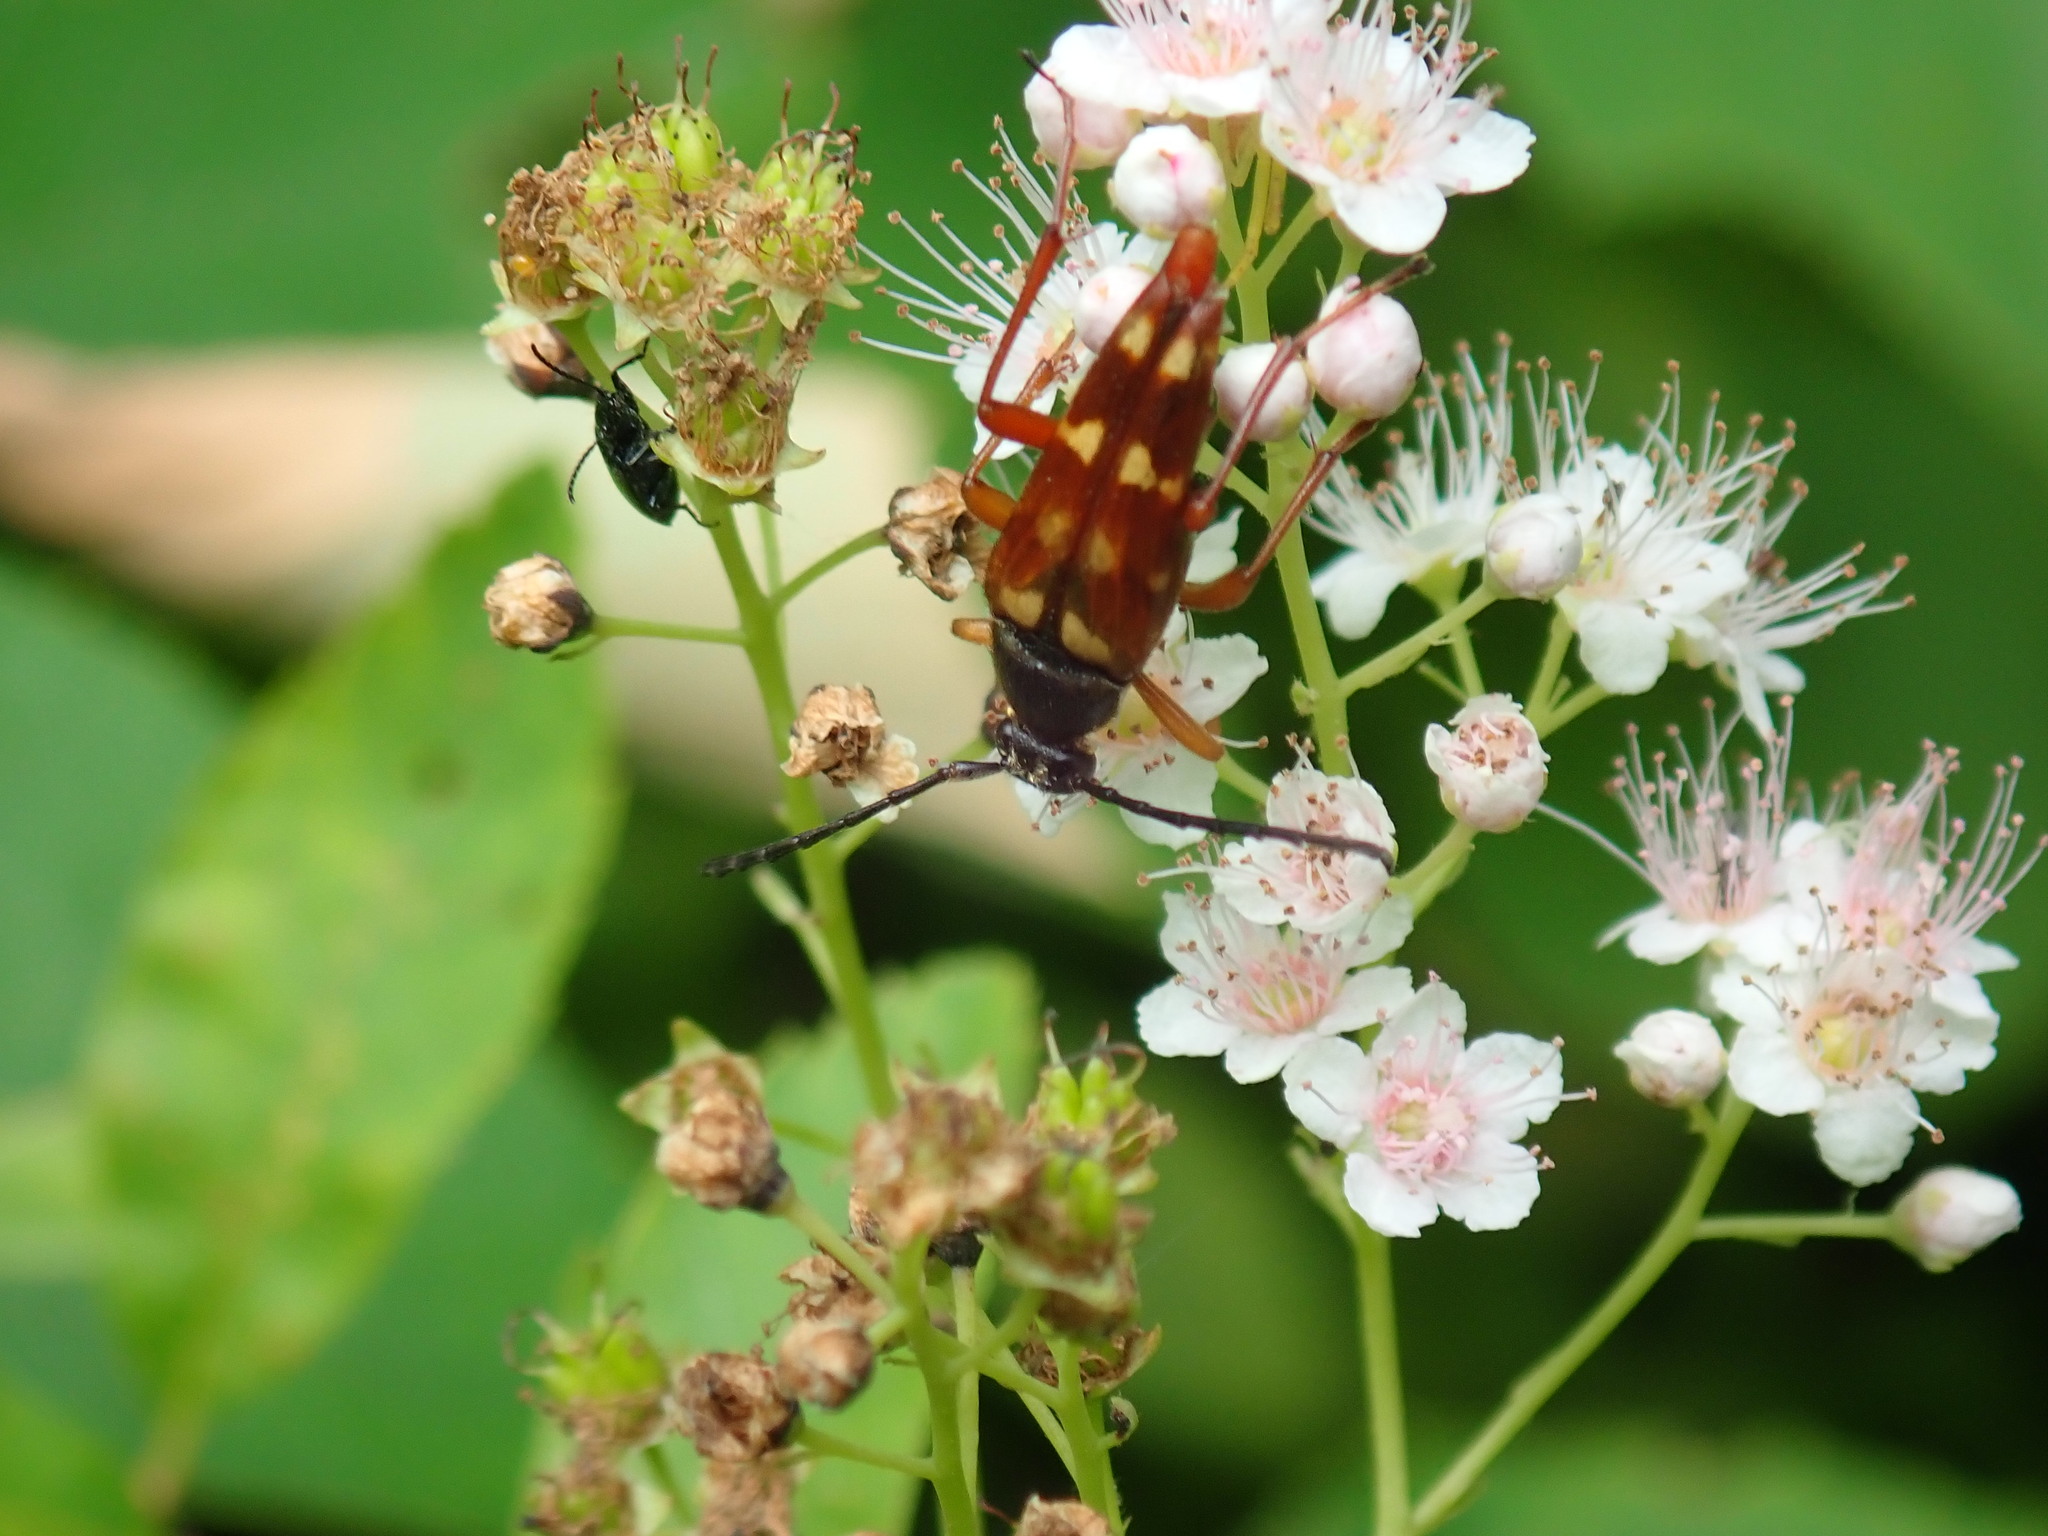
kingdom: Animalia
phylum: Arthropoda
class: Insecta
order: Coleoptera
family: Cerambycidae
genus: Typocerus
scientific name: Typocerus velutinus
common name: Banded longhorn beetle
